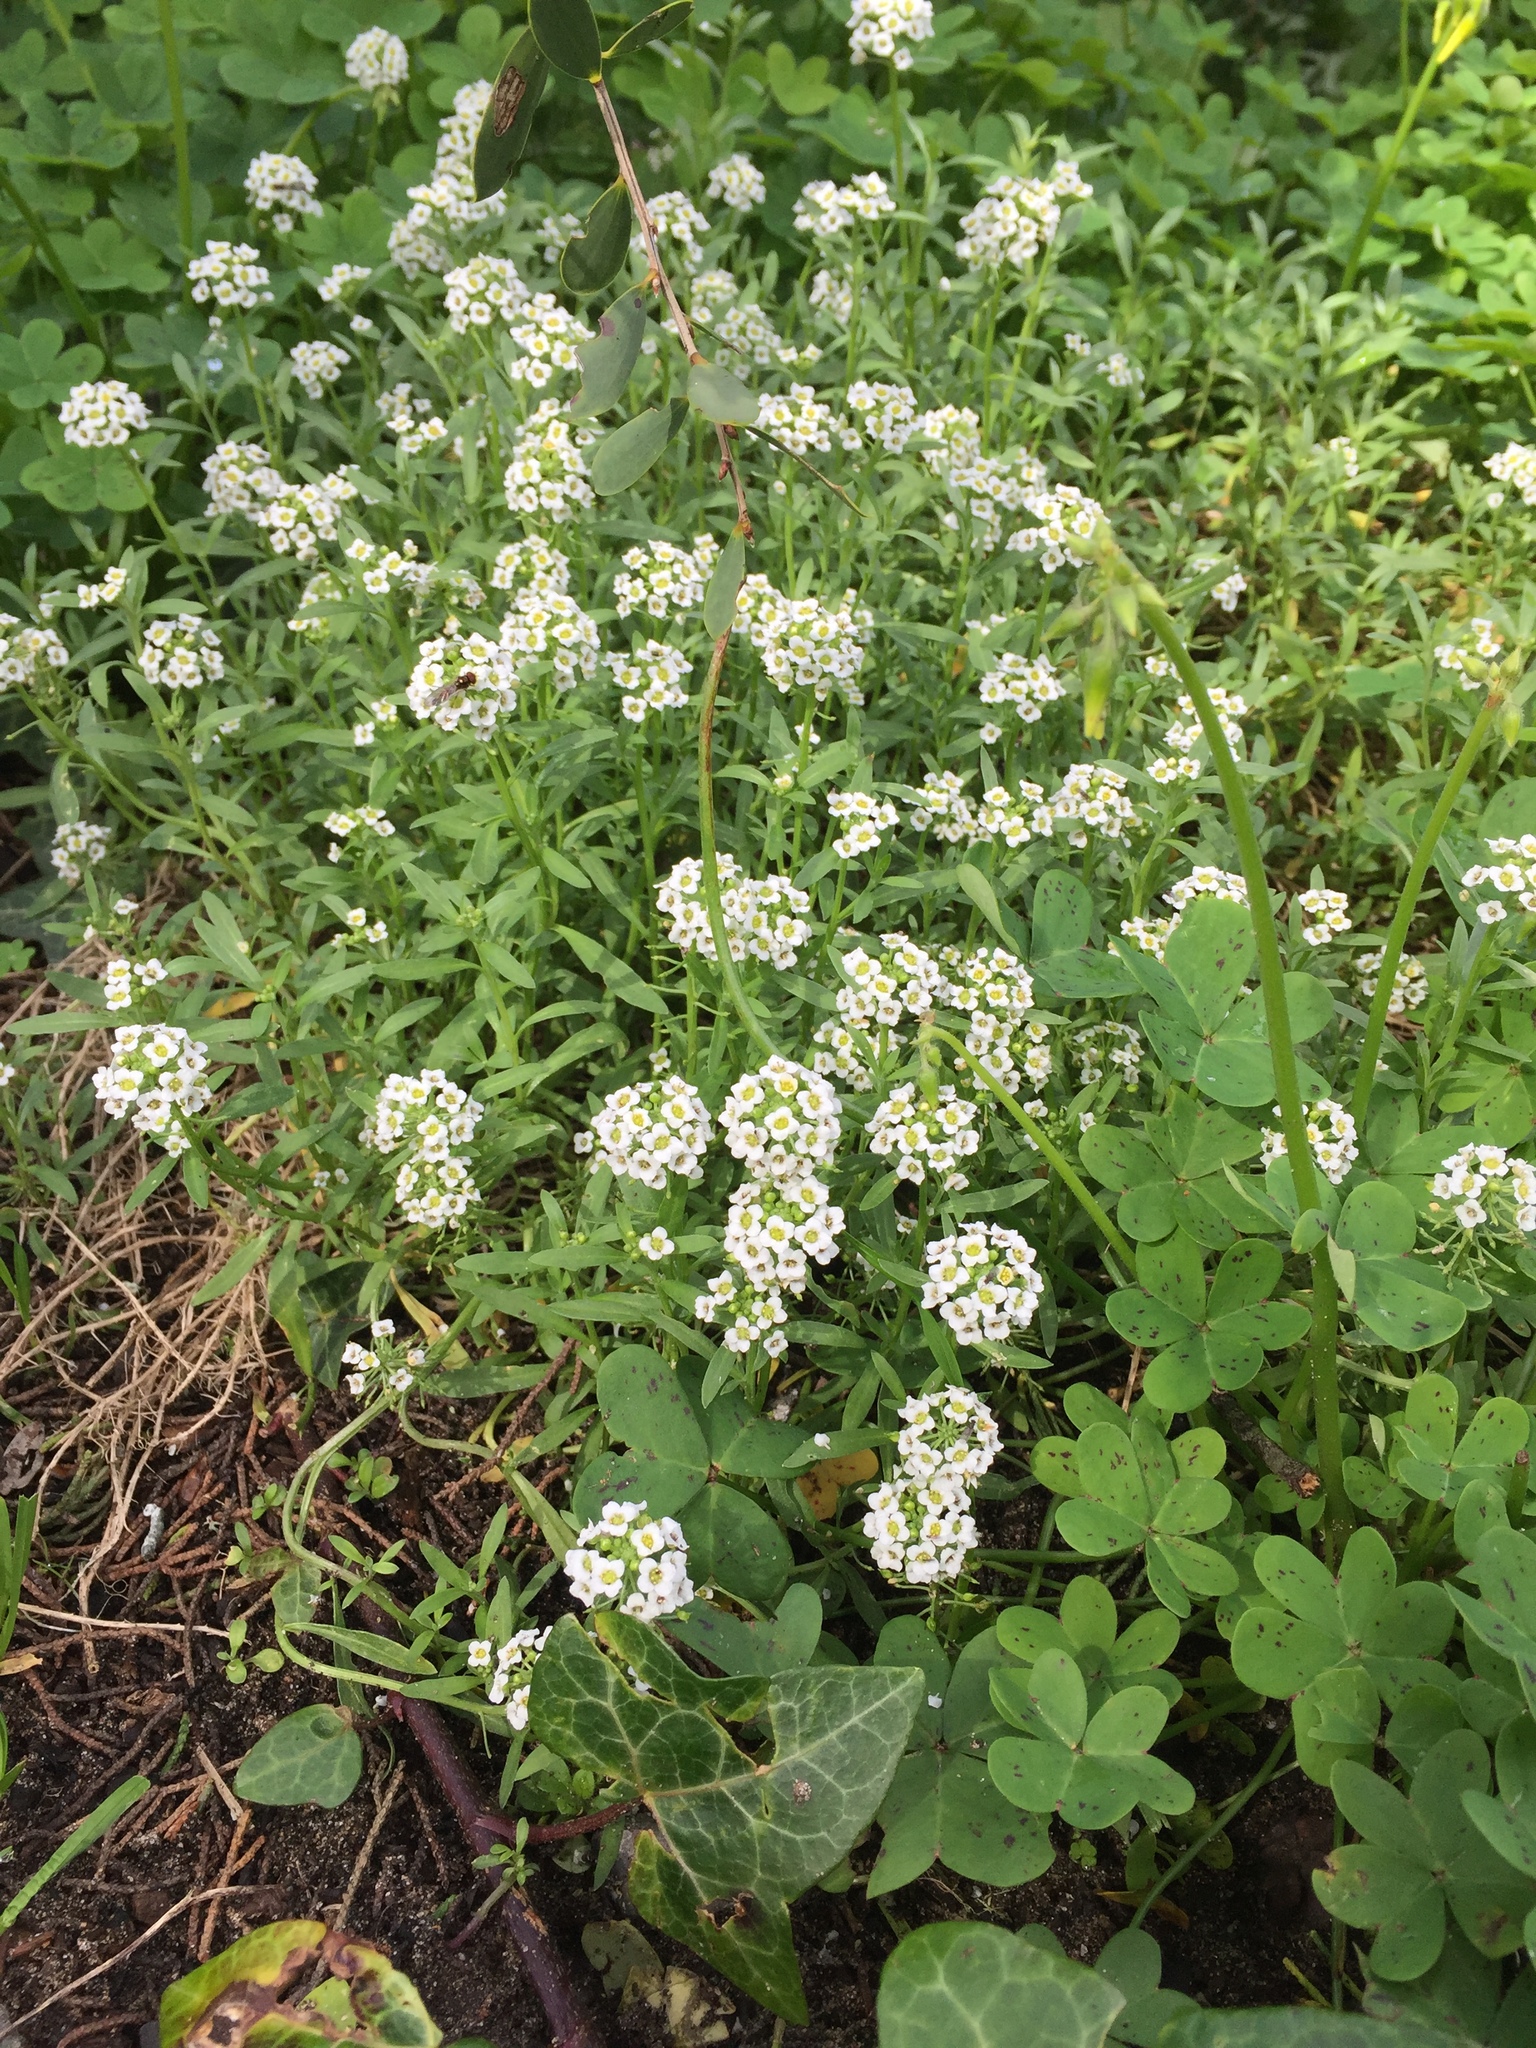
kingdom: Plantae
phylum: Tracheophyta
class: Magnoliopsida
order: Brassicales
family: Brassicaceae
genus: Lobularia
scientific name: Lobularia maritima
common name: Sweet alison
